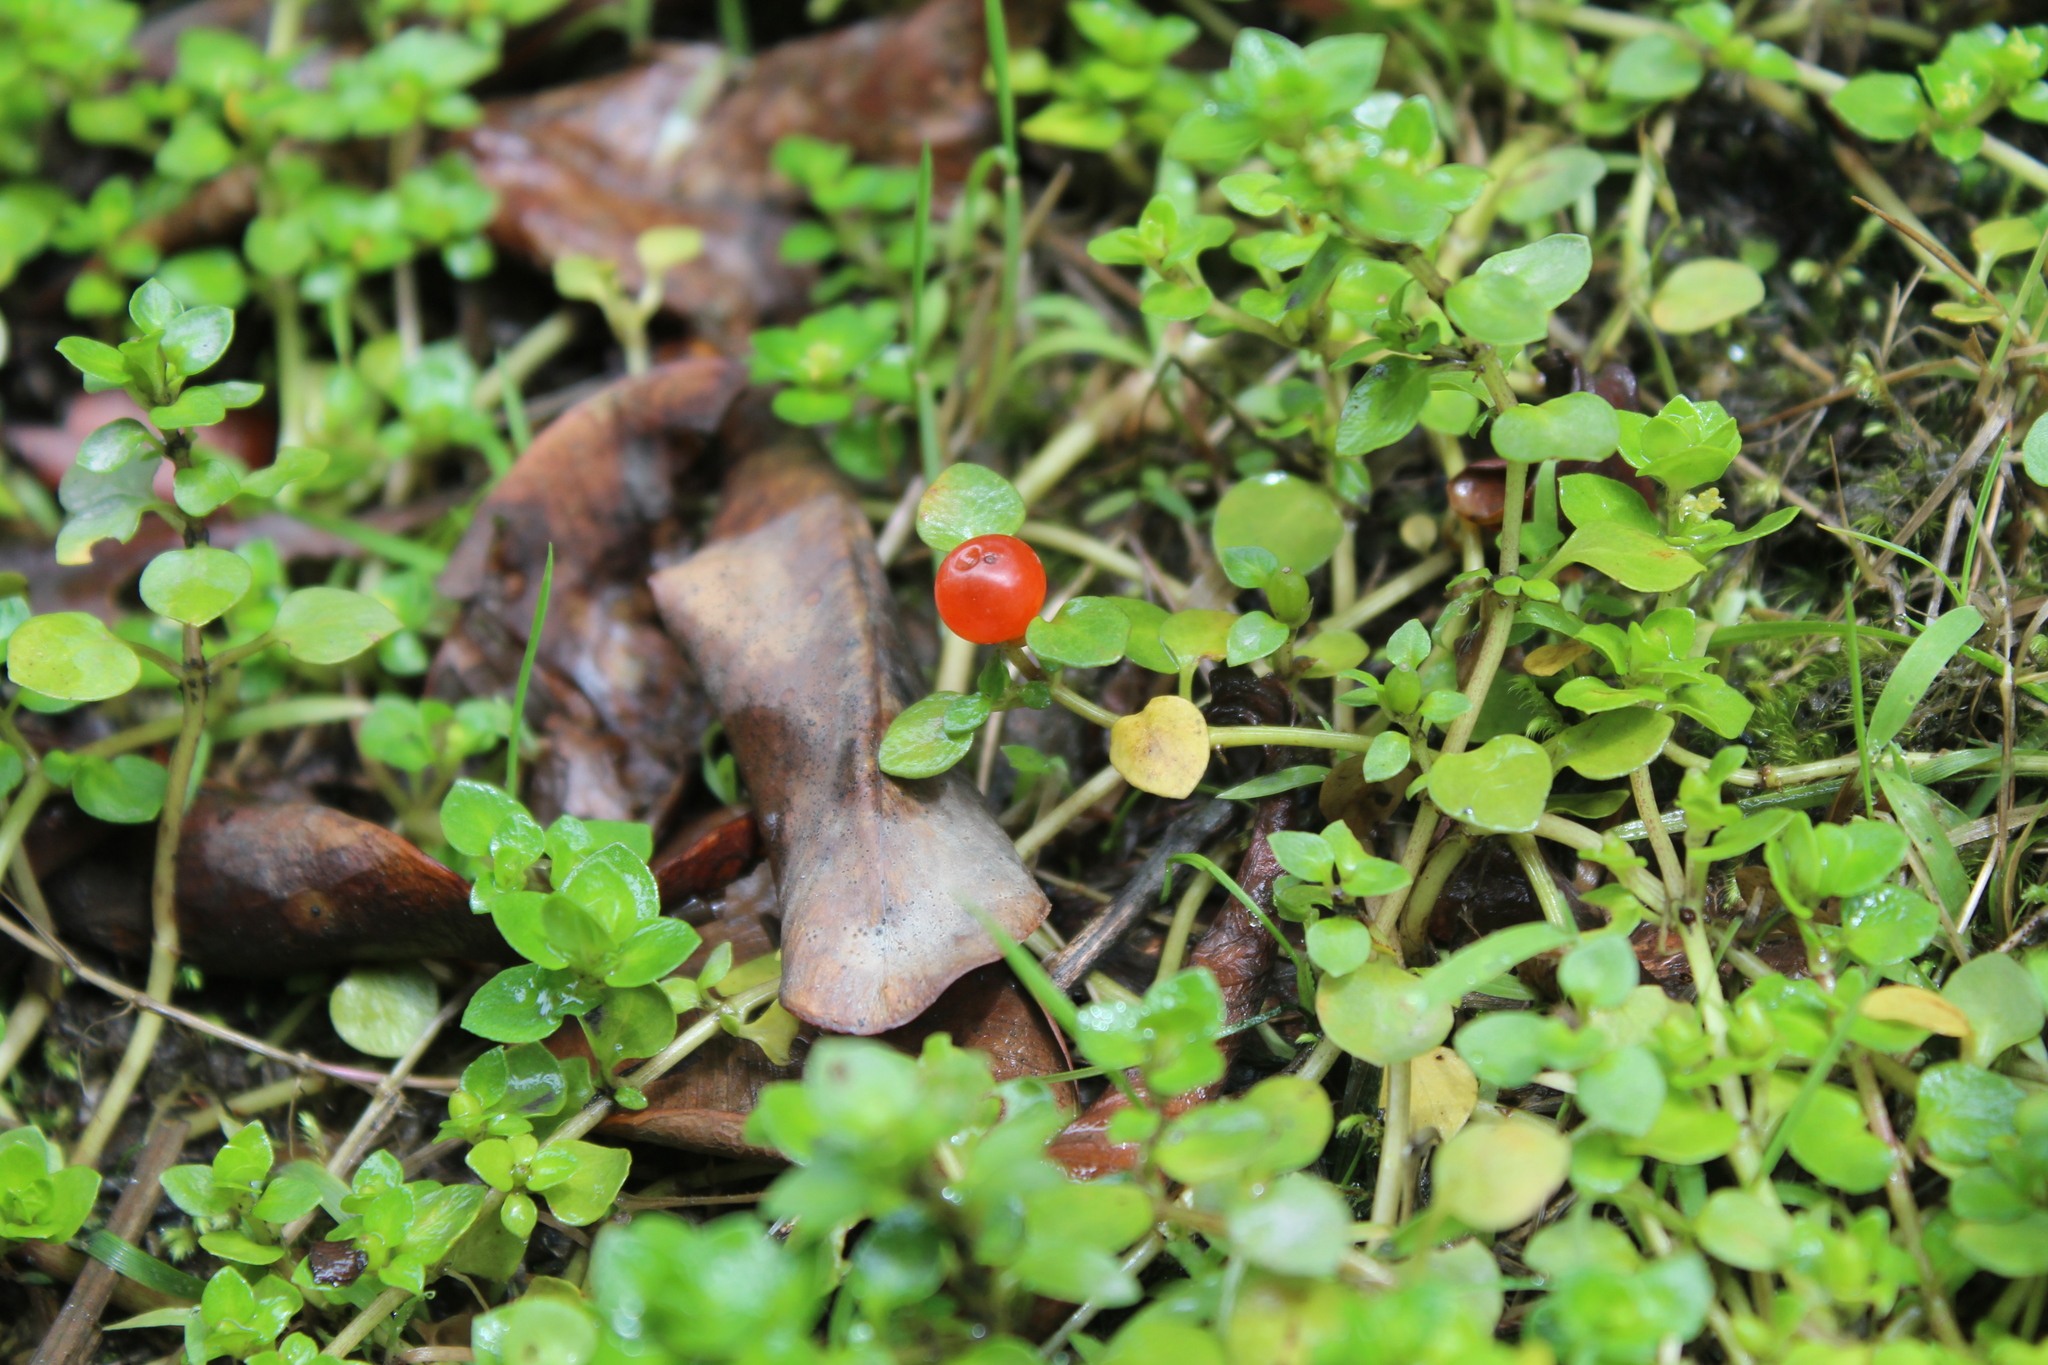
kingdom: Plantae
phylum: Tracheophyta
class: Magnoliopsida
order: Gentianales
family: Rubiaceae
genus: Nertera
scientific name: Nertera granadensis
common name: Beadplant
